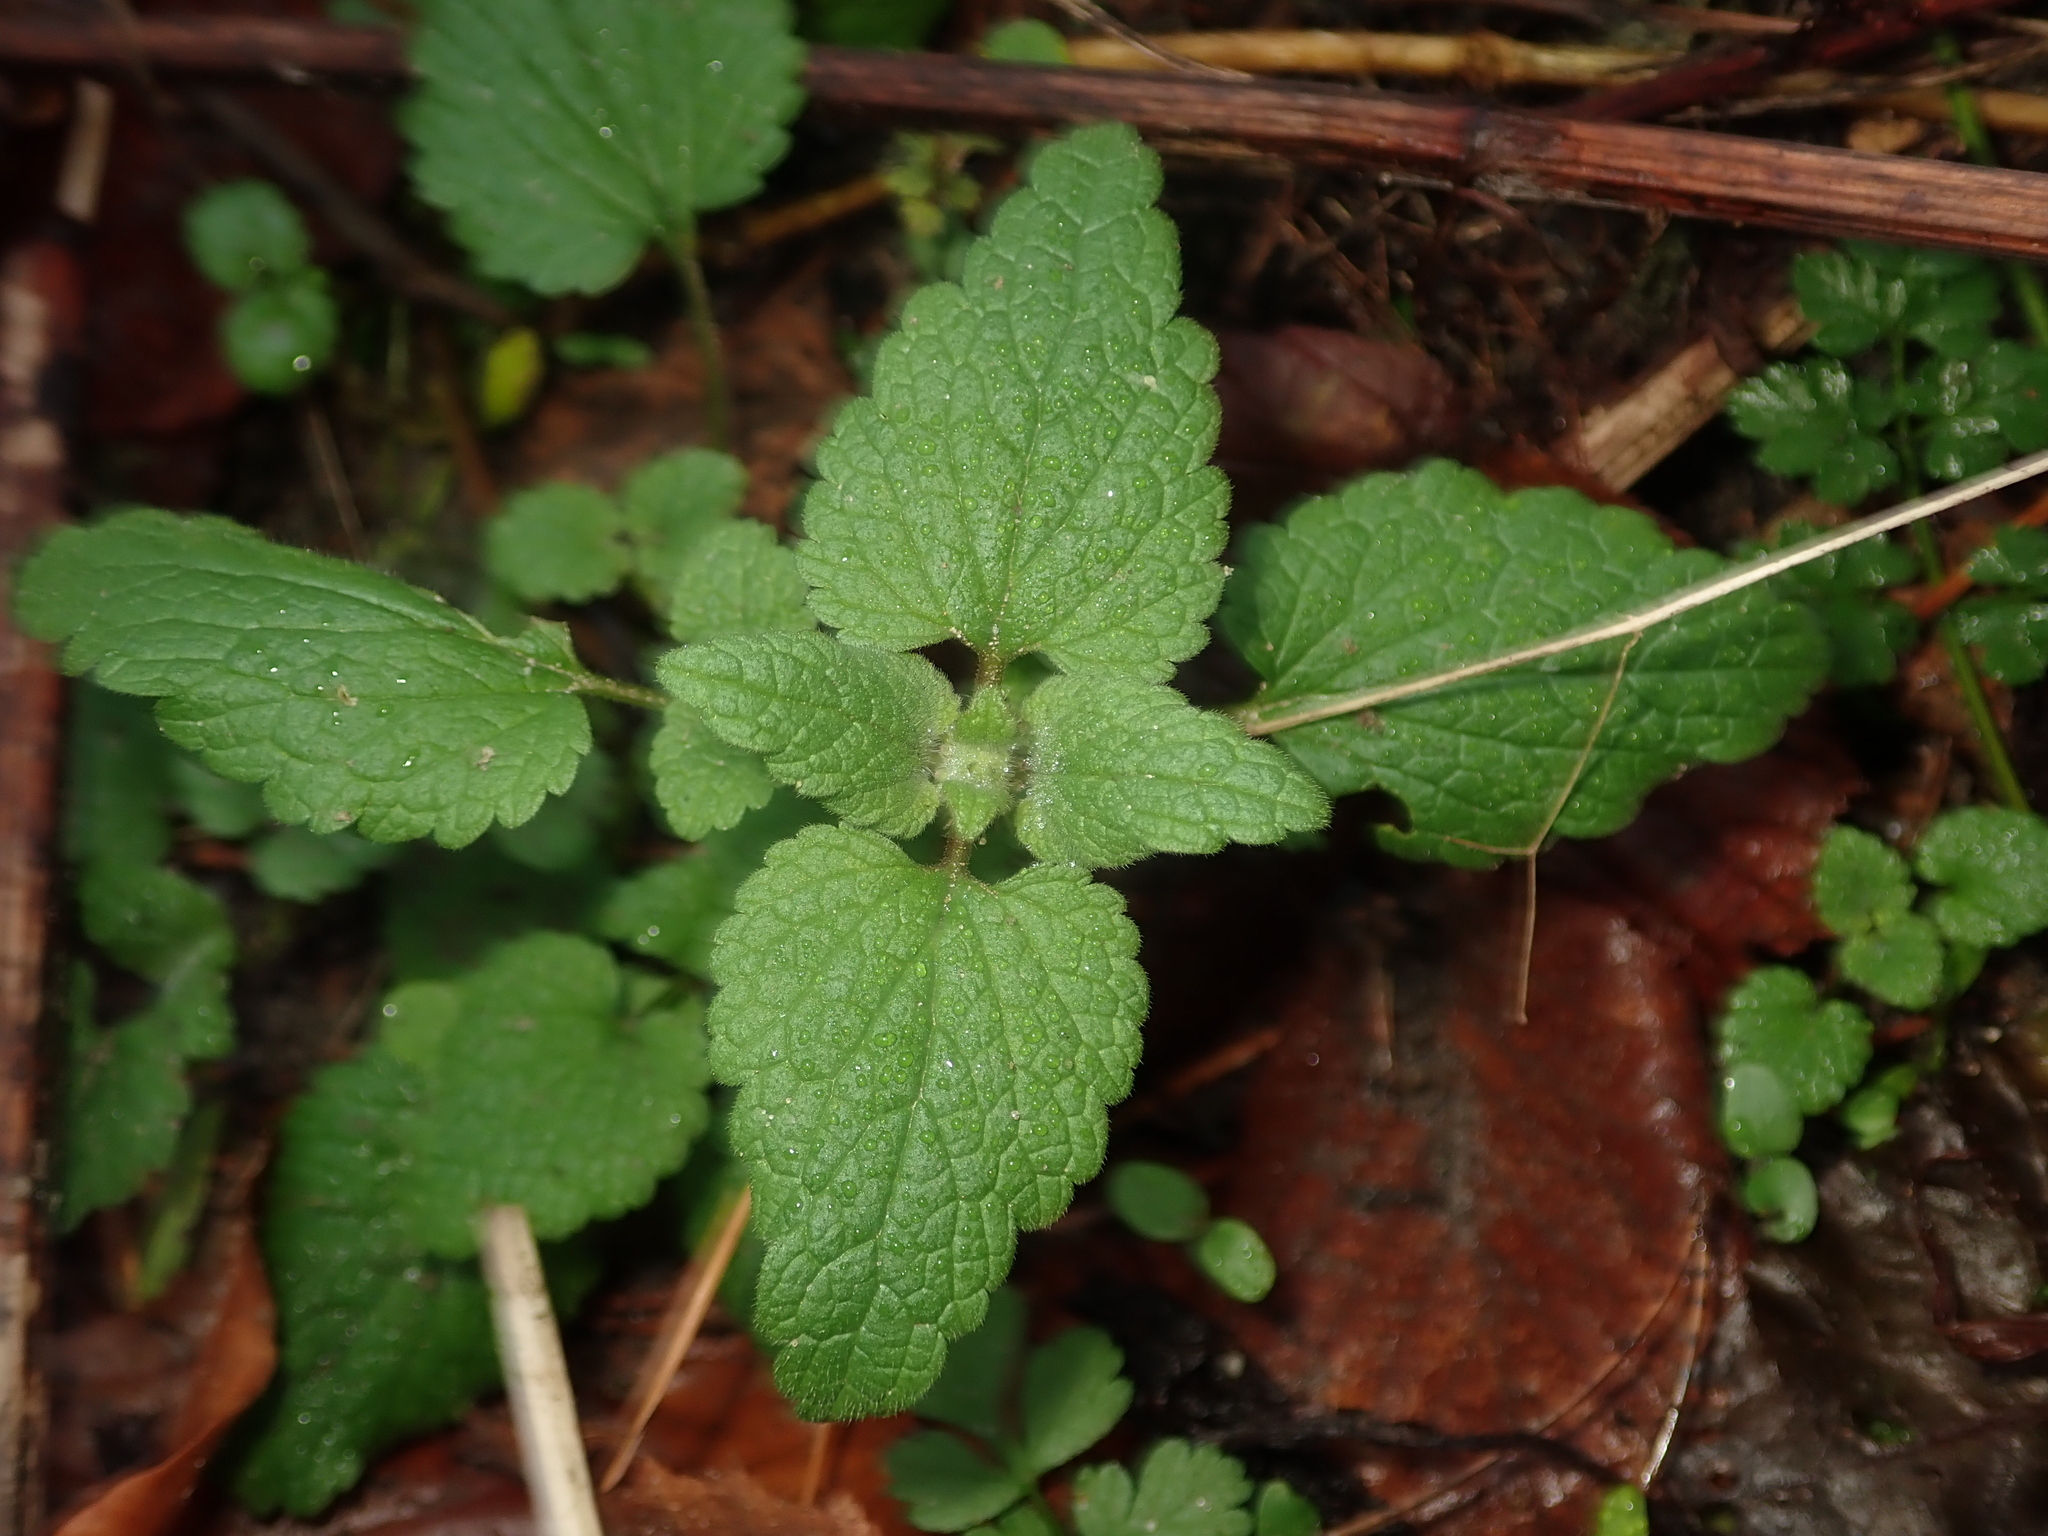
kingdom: Plantae
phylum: Tracheophyta
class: Magnoliopsida
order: Lamiales
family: Lamiaceae
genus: Lamium
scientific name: Lamium purpureum
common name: Red dead-nettle
